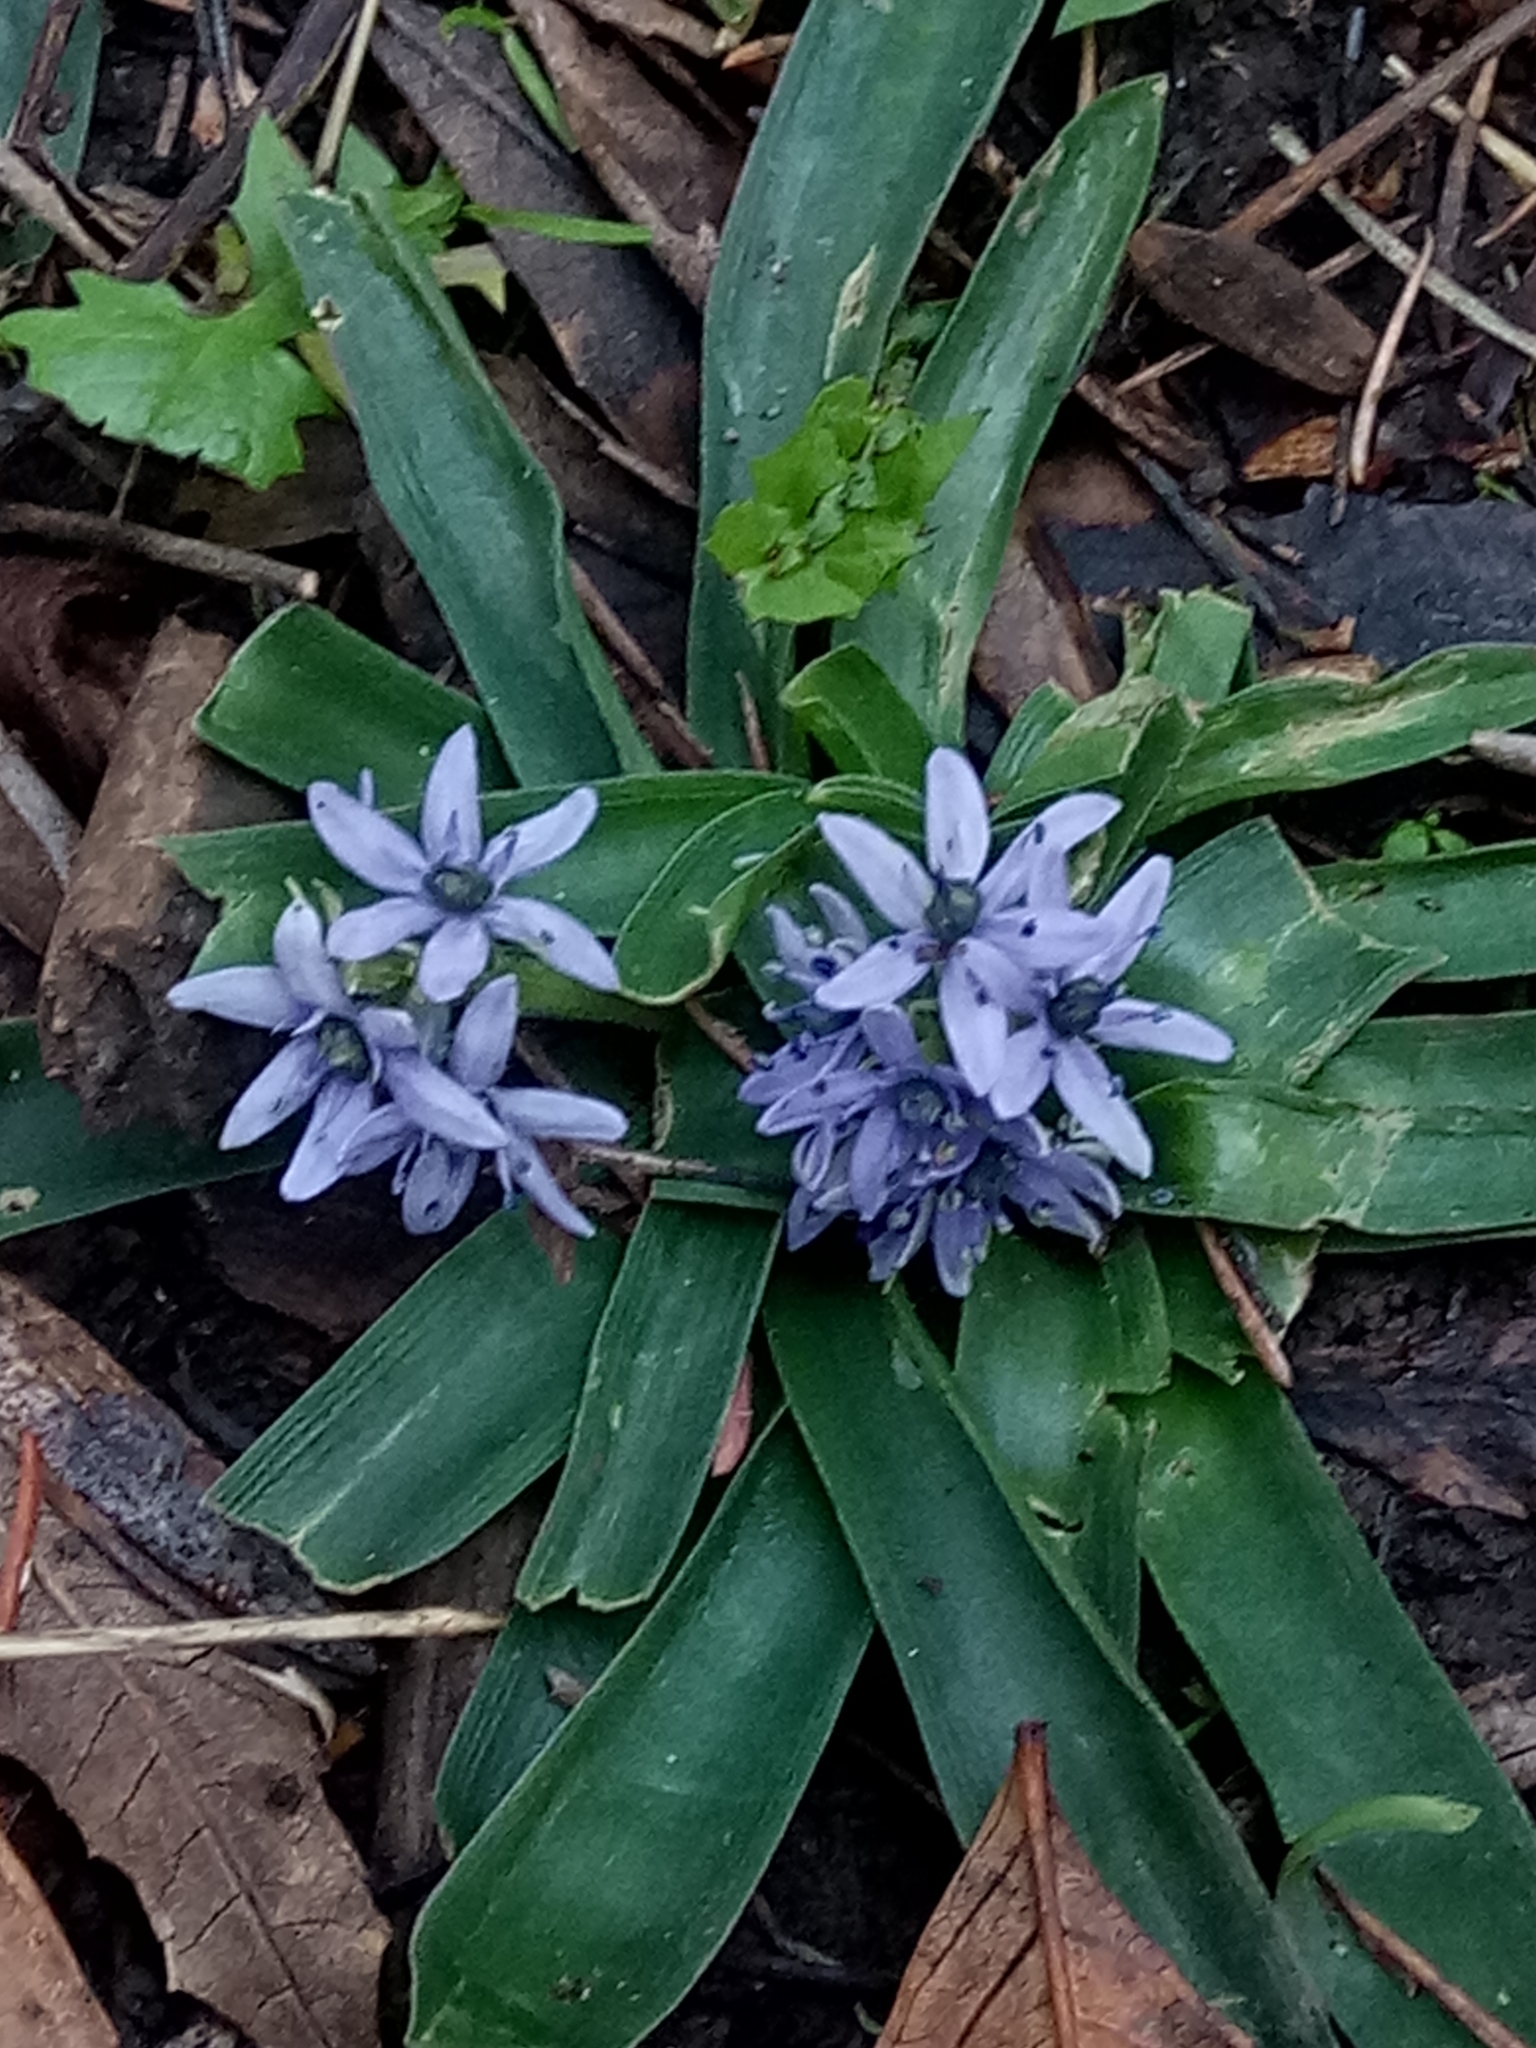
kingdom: Plantae
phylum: Tracheophyta
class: Liliopsida
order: Asparagales
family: Asparagaceae
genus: Hyacinthoides
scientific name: Hyacinthoides lingulata
